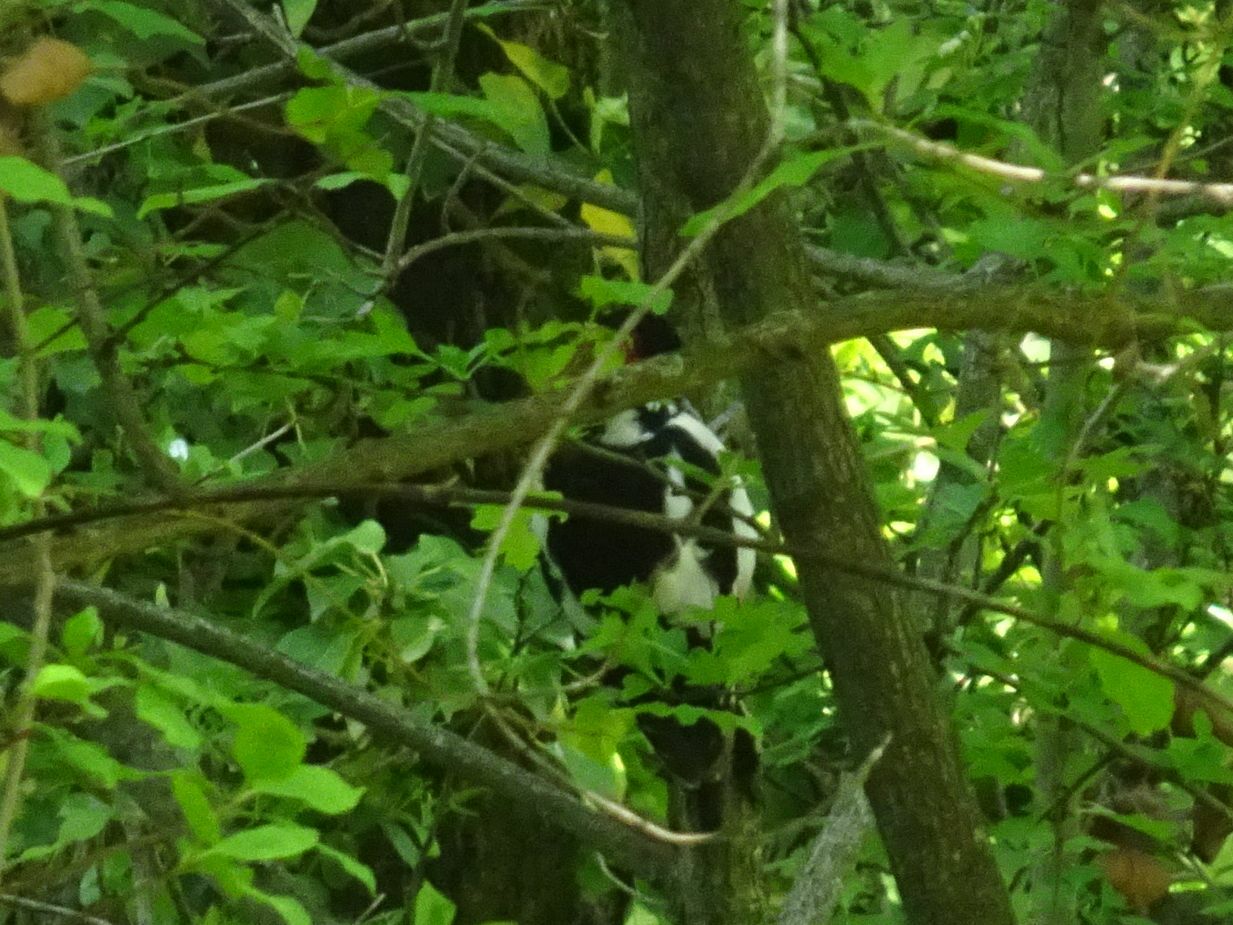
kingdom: Animalia
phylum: Chordata
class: Aves
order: Piciformes
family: Picidae
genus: Dendrocopos
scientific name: Dendrocopos major
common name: Great spotted woodpecker
